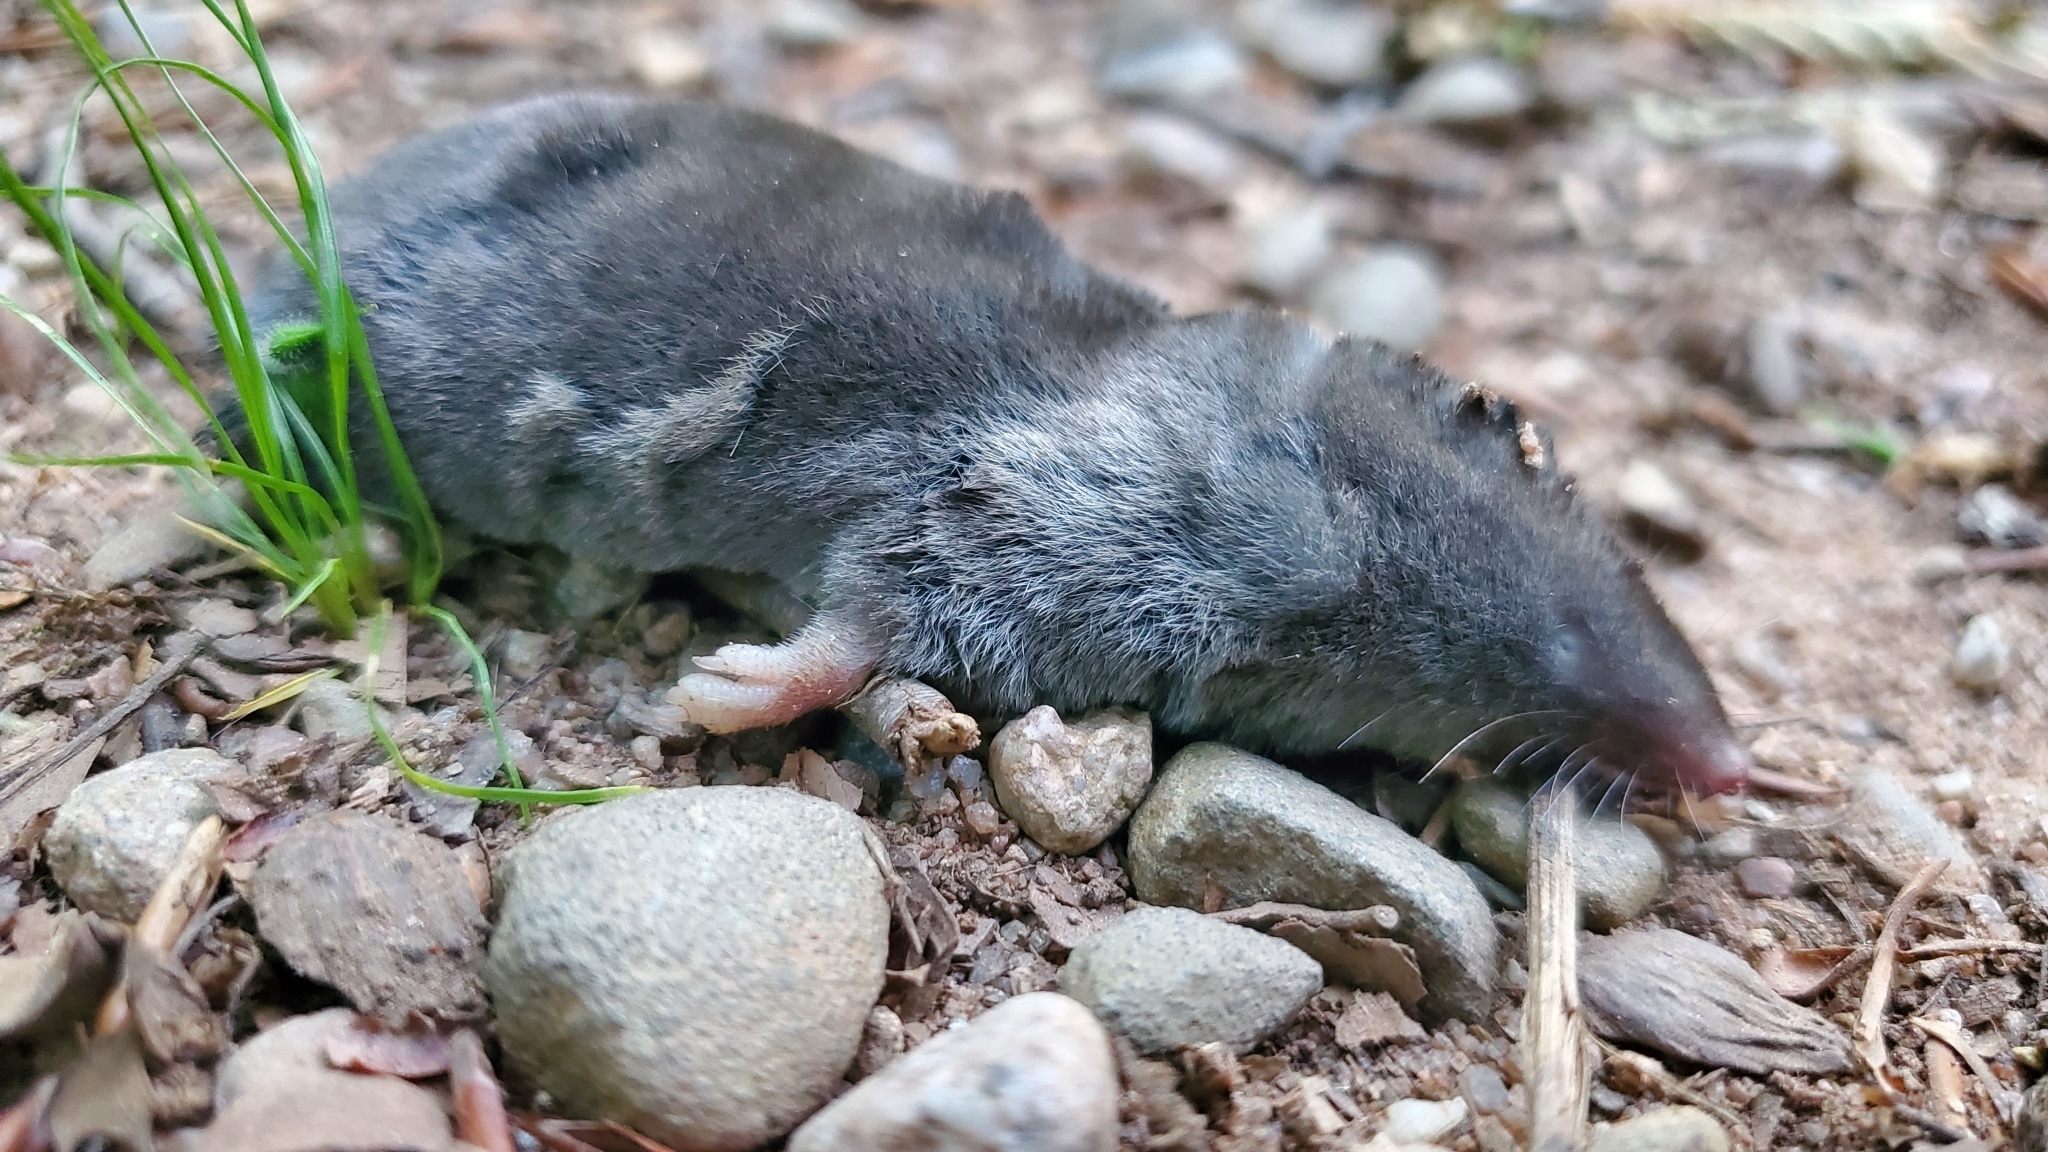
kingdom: Animalia
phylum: Chordata
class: Mammalia
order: Soricomorpha
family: Soricidae
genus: Blarina
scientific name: Blarina brevicauda
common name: Northern short-tailed shrew
